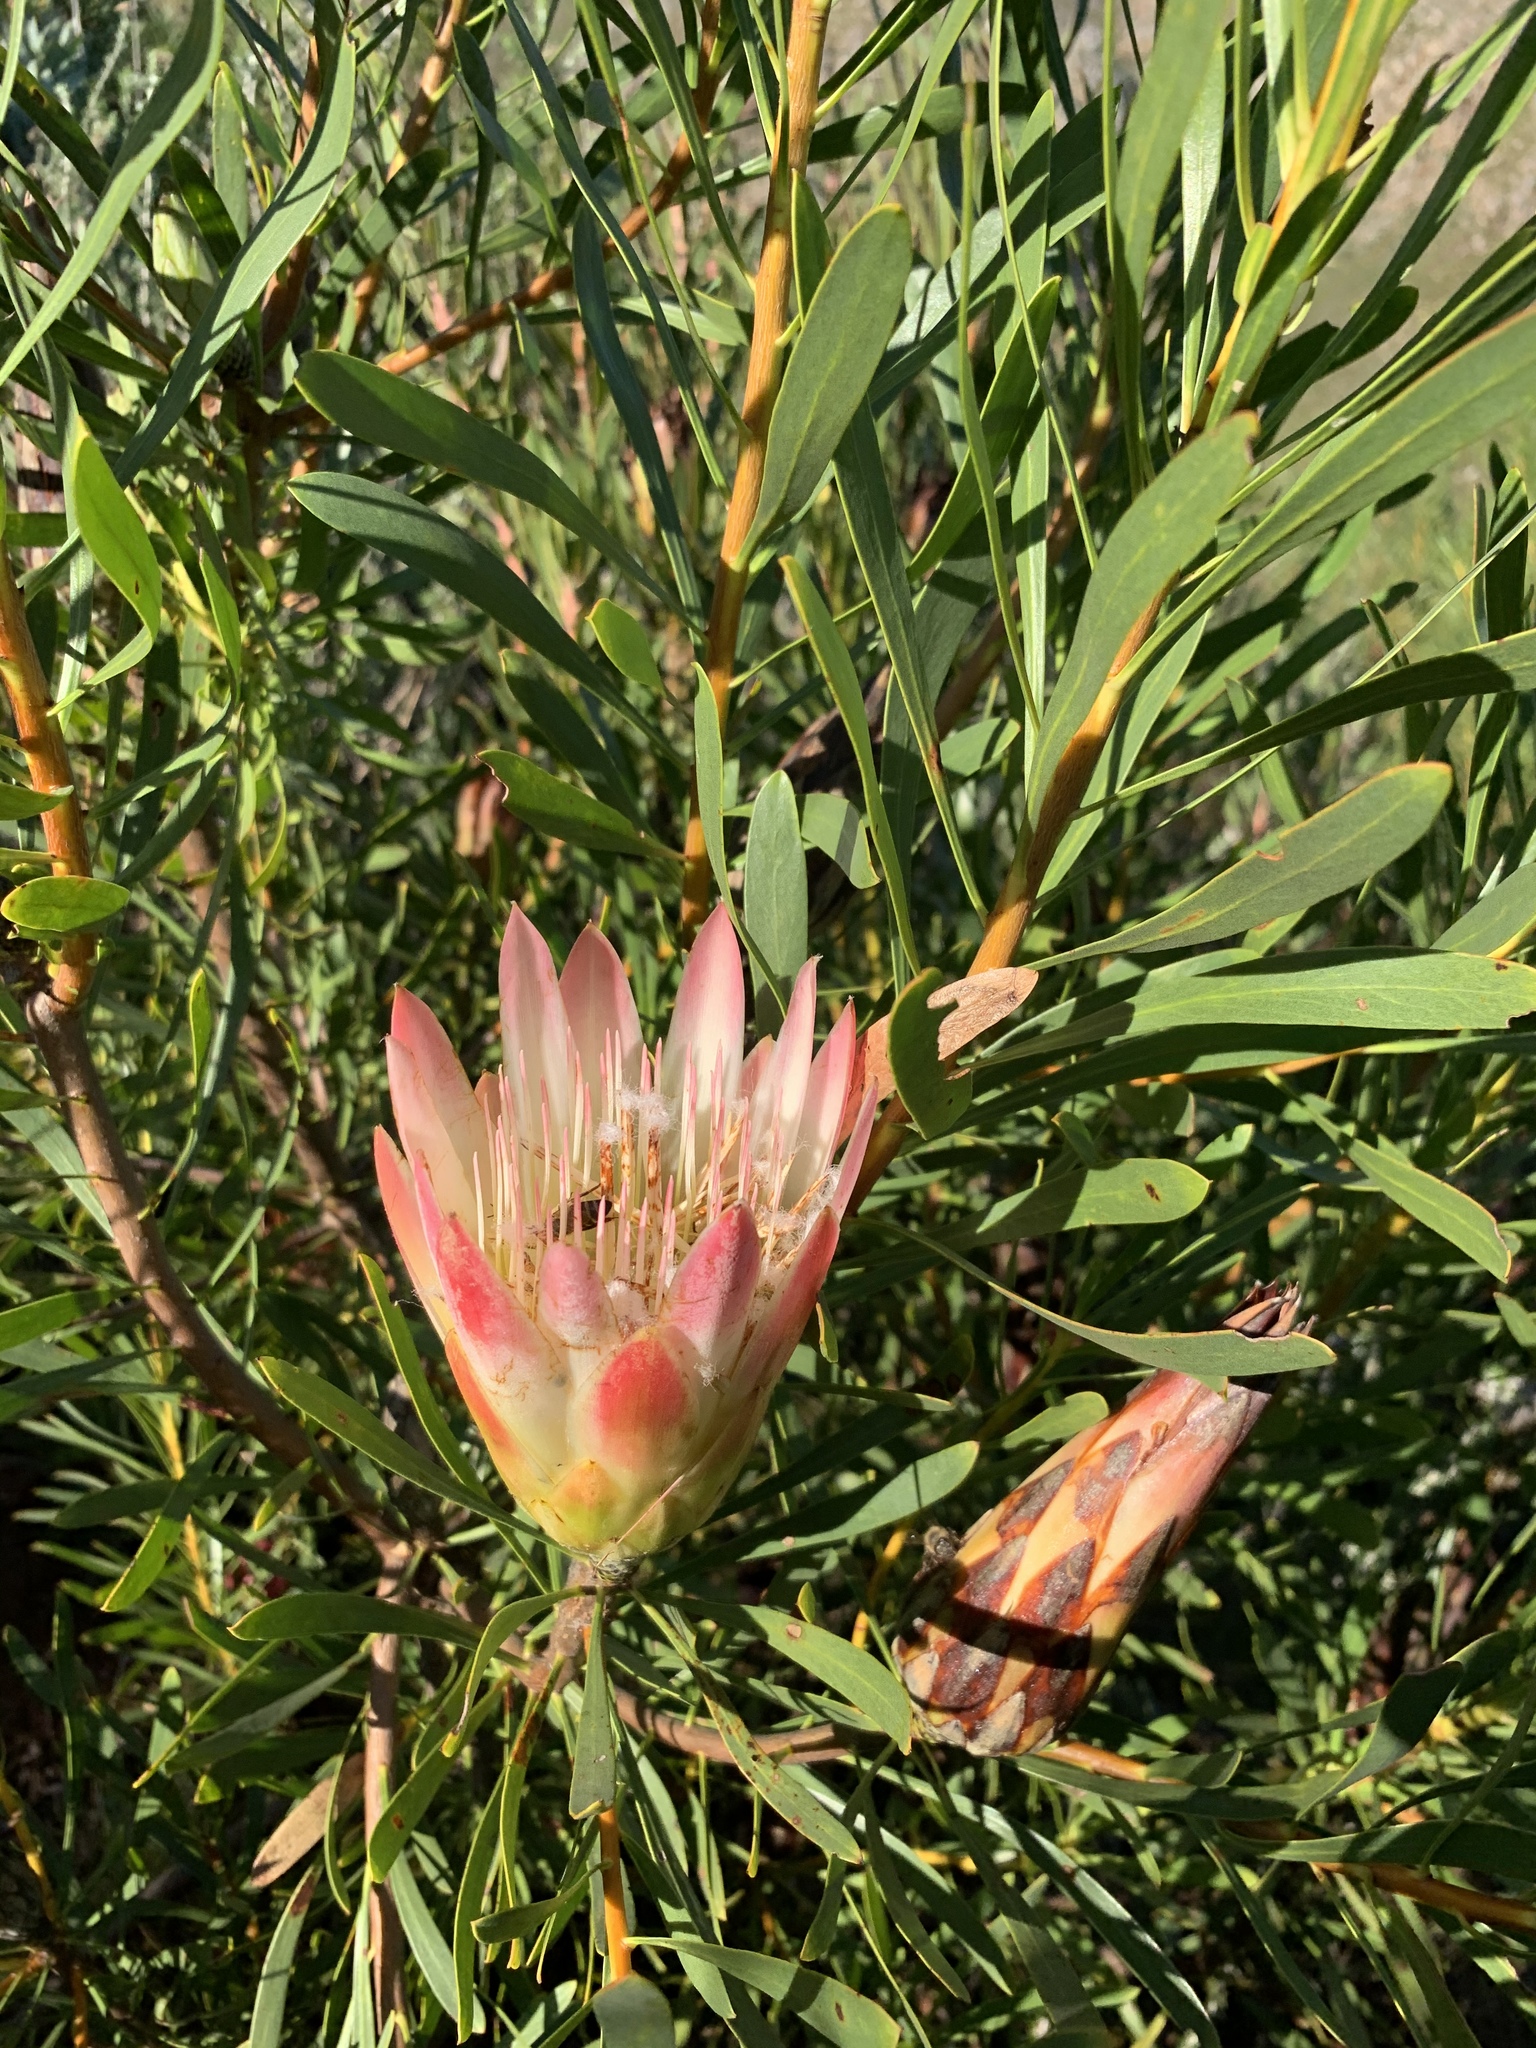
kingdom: Plantae
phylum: Tracheophyta
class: Magnoliopsida
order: Proteales
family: Proteaceae
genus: Protea
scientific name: Protea repens
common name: Sugarbush
